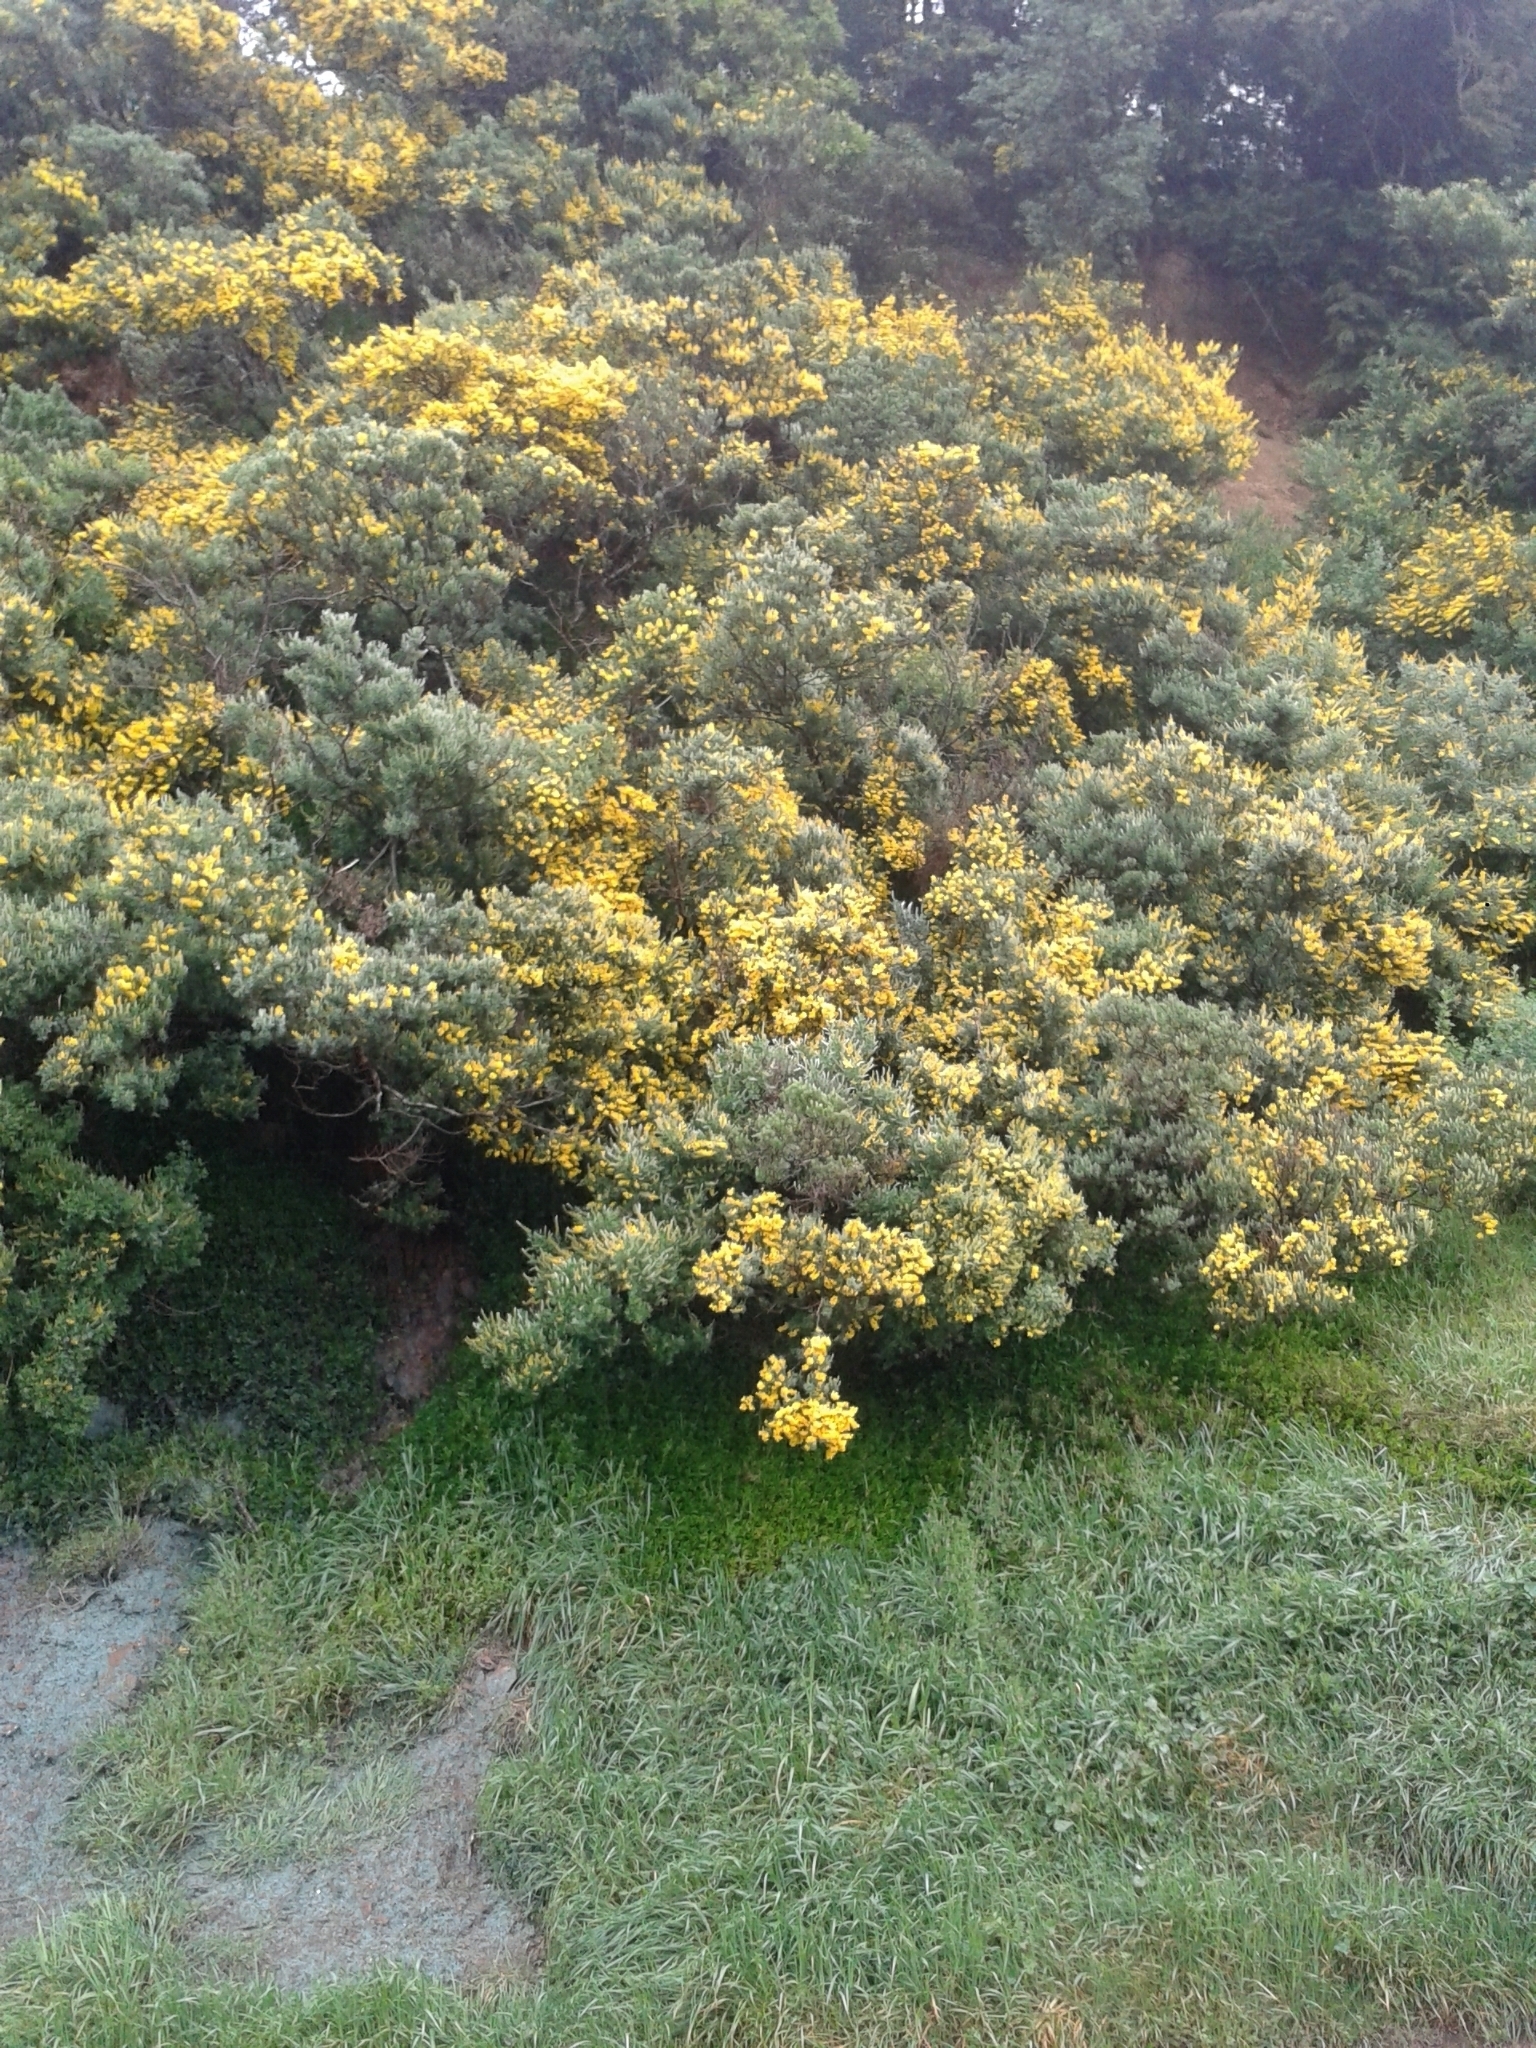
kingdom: Plantae
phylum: Tracheophyta
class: Magnoliopsida
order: Fabales
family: Fabaceae
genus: Genista
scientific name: Genista monspessulana
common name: Montpellier broom
